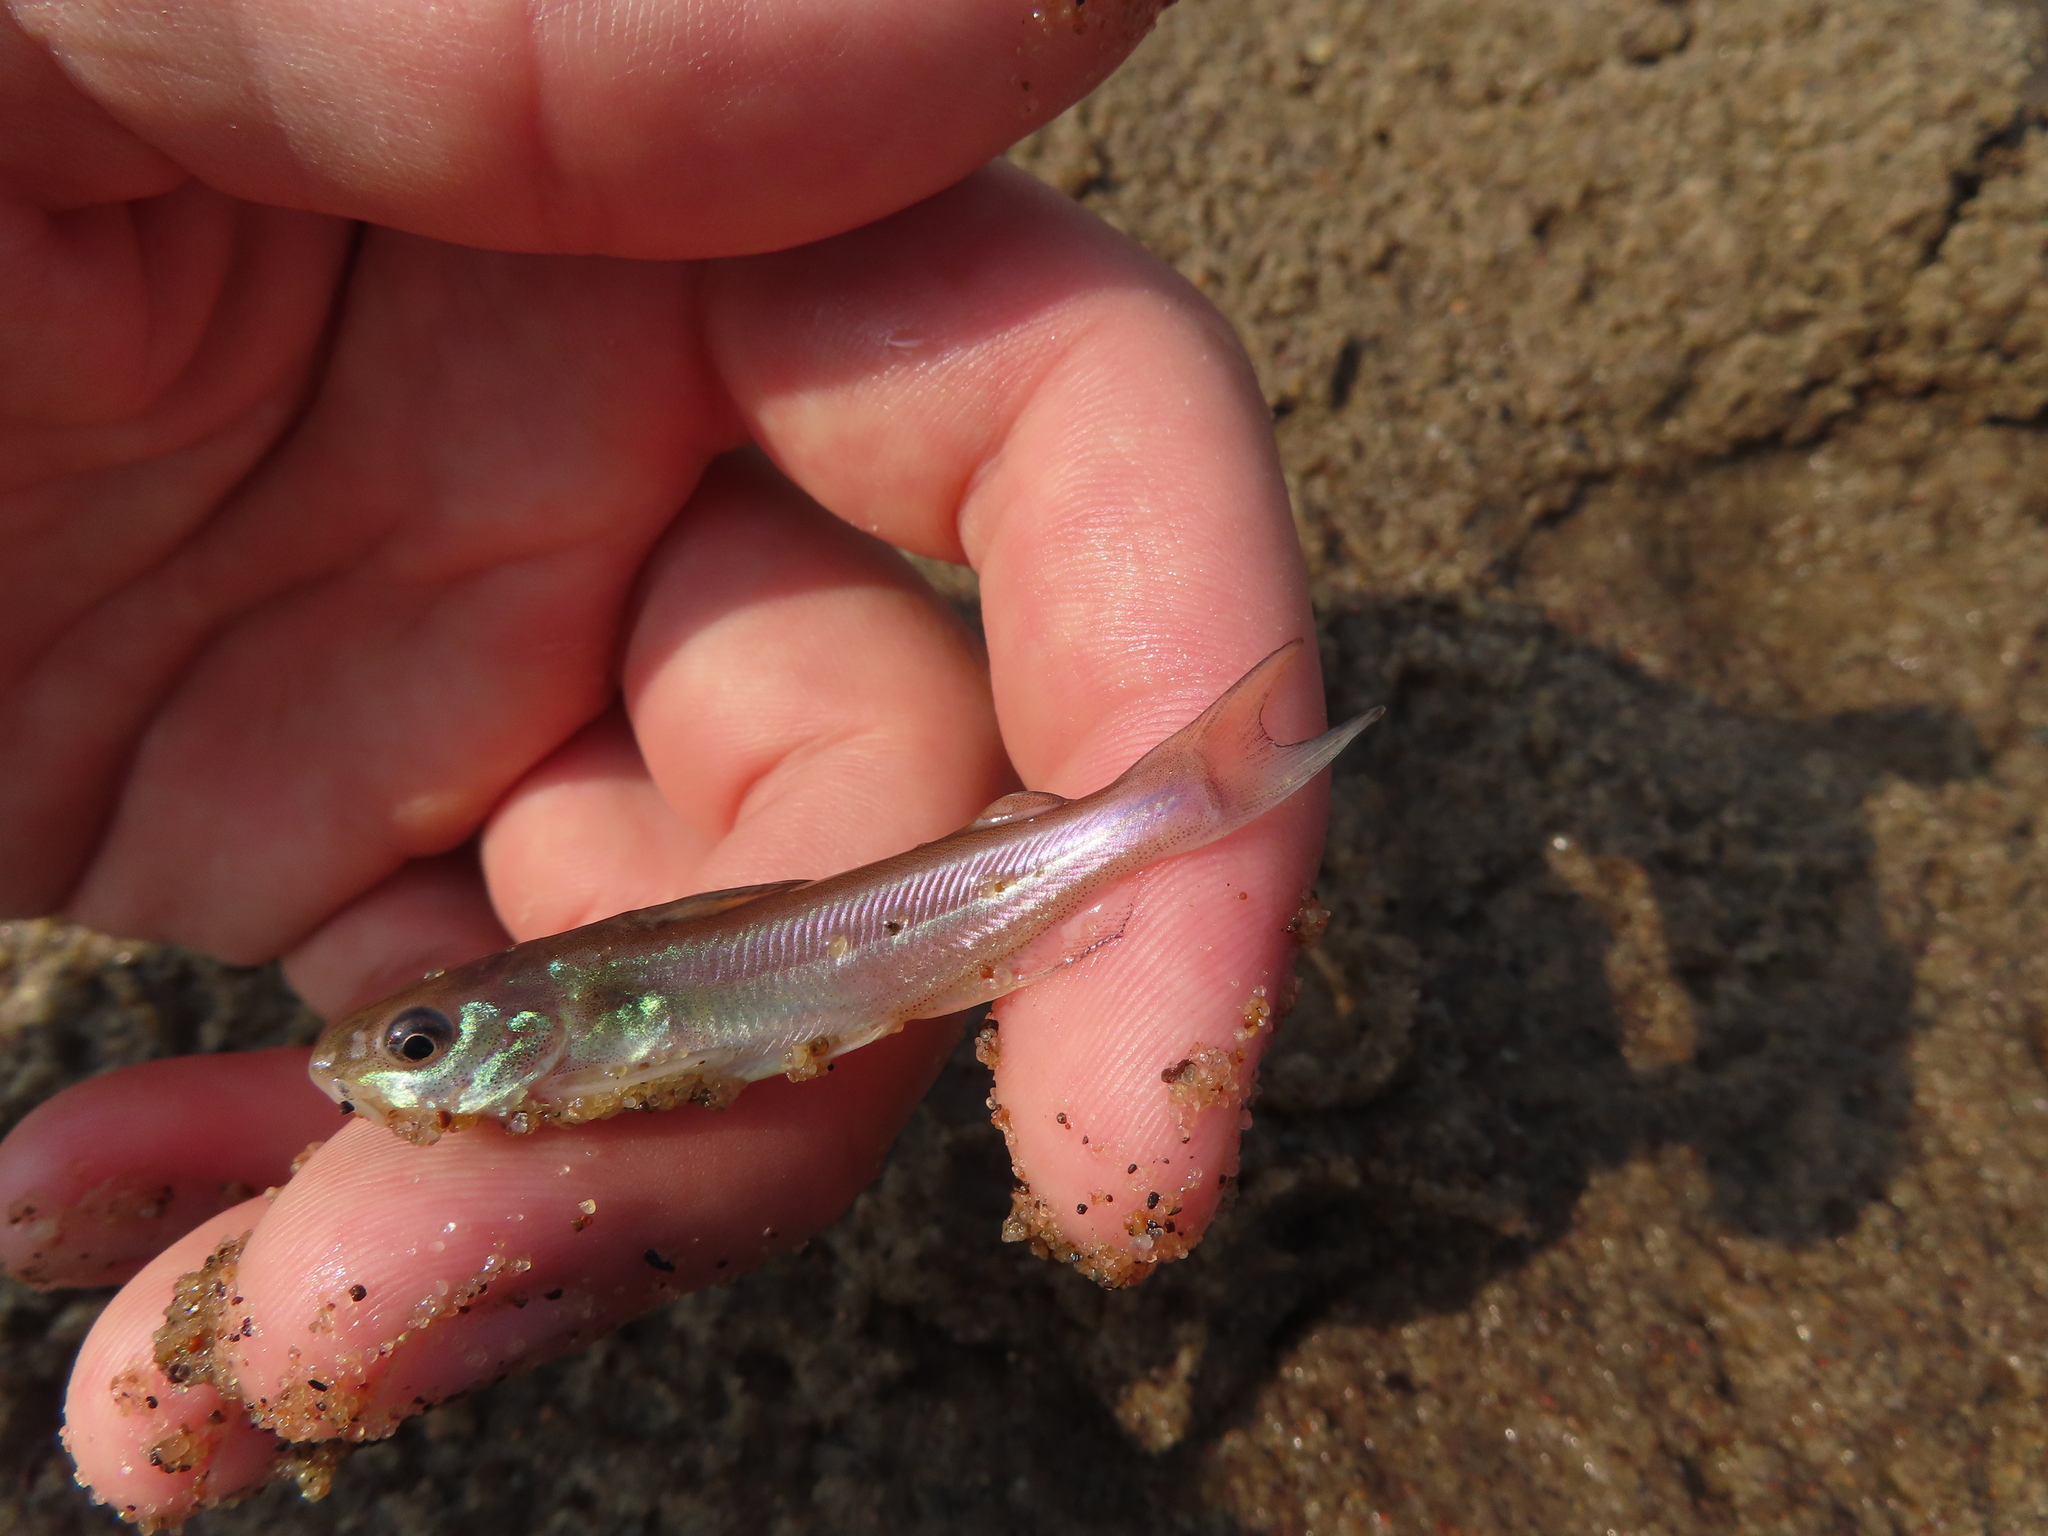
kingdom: Animalia
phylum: Chordata
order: Siluriformes
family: Ictaluridae
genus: Ictalurus
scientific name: Ictalurus punctatus
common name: Channel catfish
